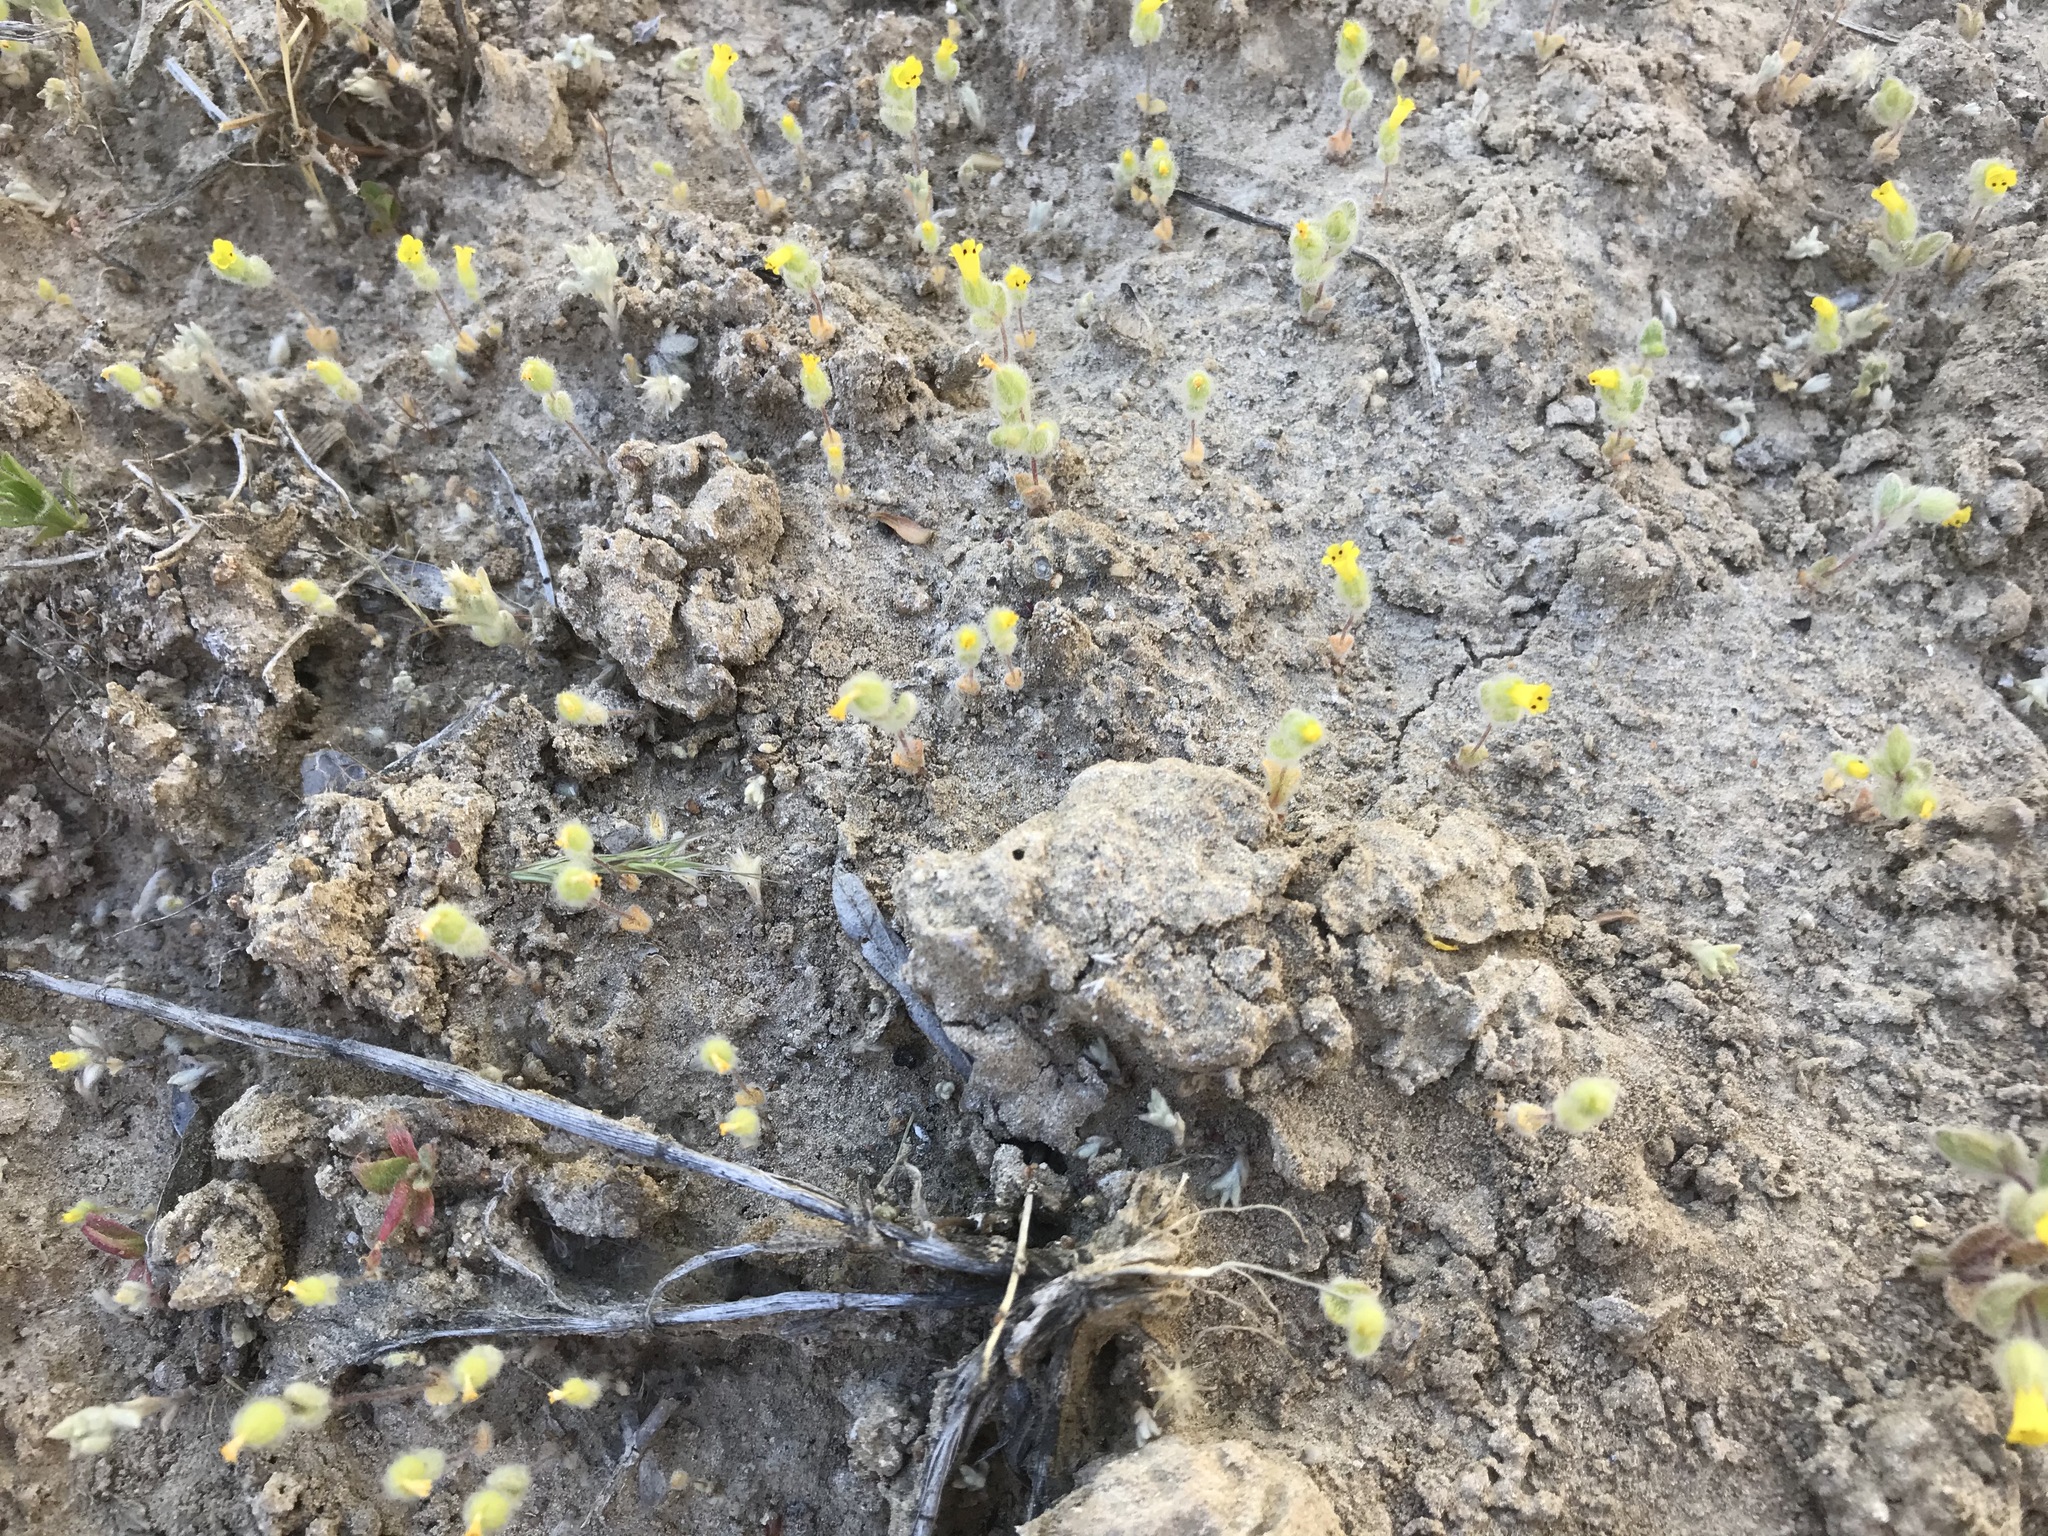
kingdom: Plantae
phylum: Tracheophyta
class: Magnoliopsida
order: Lamiales
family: Phrymaceae
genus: Mimetanthe
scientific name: Mimetanthe pilosa
